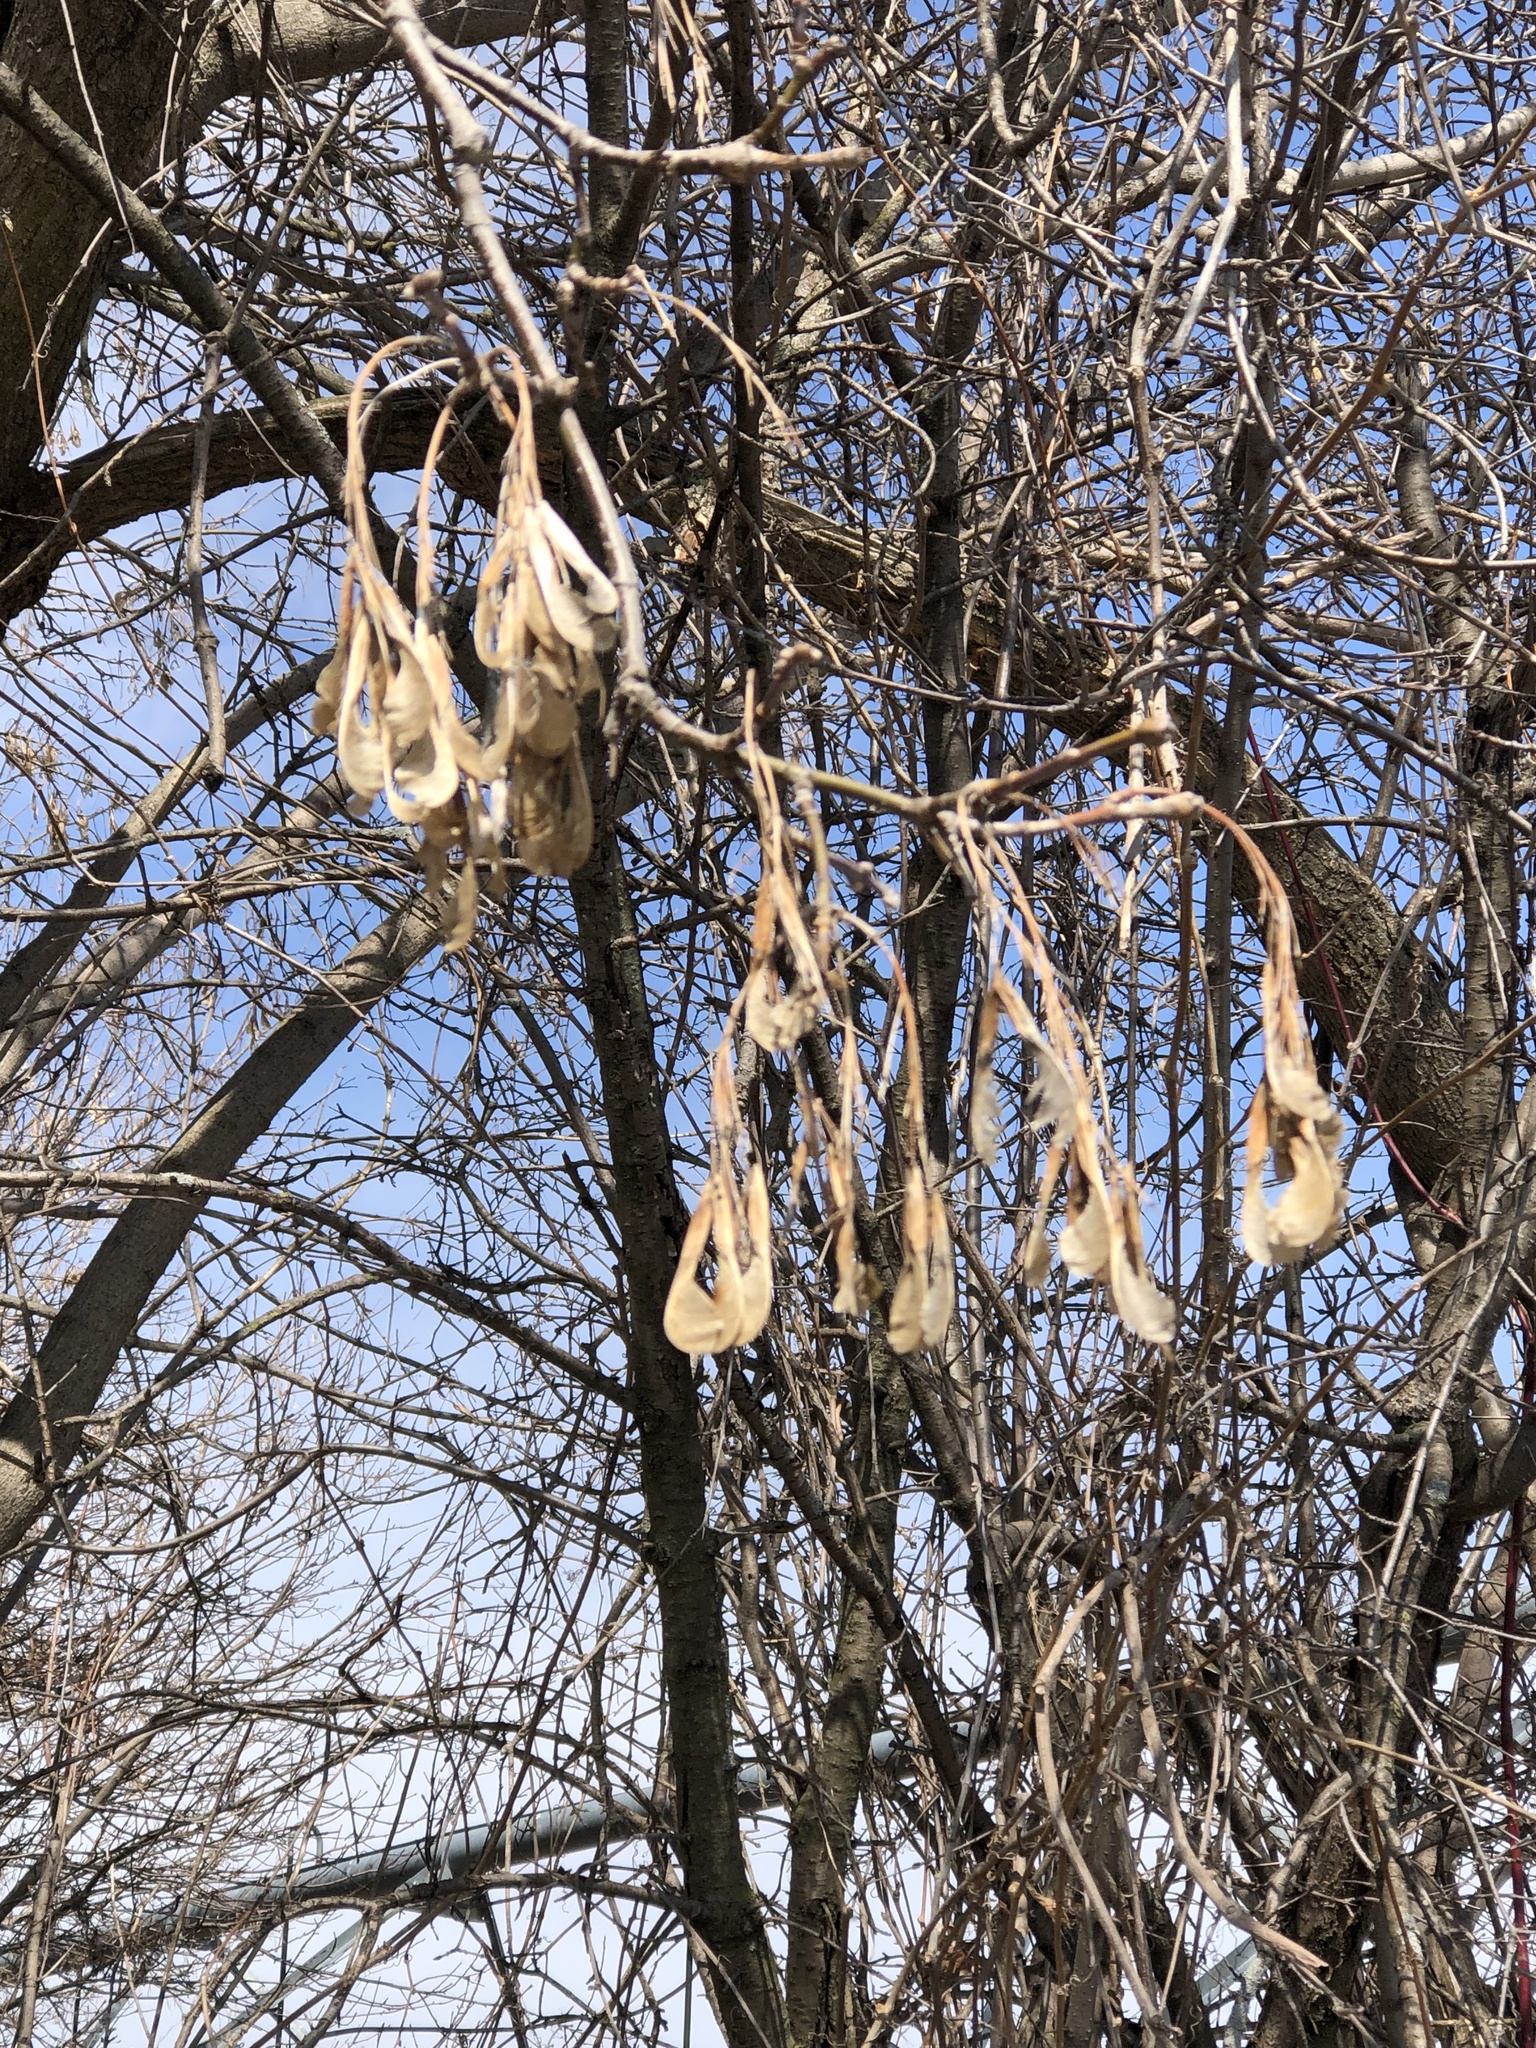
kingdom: Plantae
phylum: Tracheophyta
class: Magnoliopsida
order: Sapindales
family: Sapindaceae
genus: Acer
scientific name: Acer negundo
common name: Ashleaf maple
